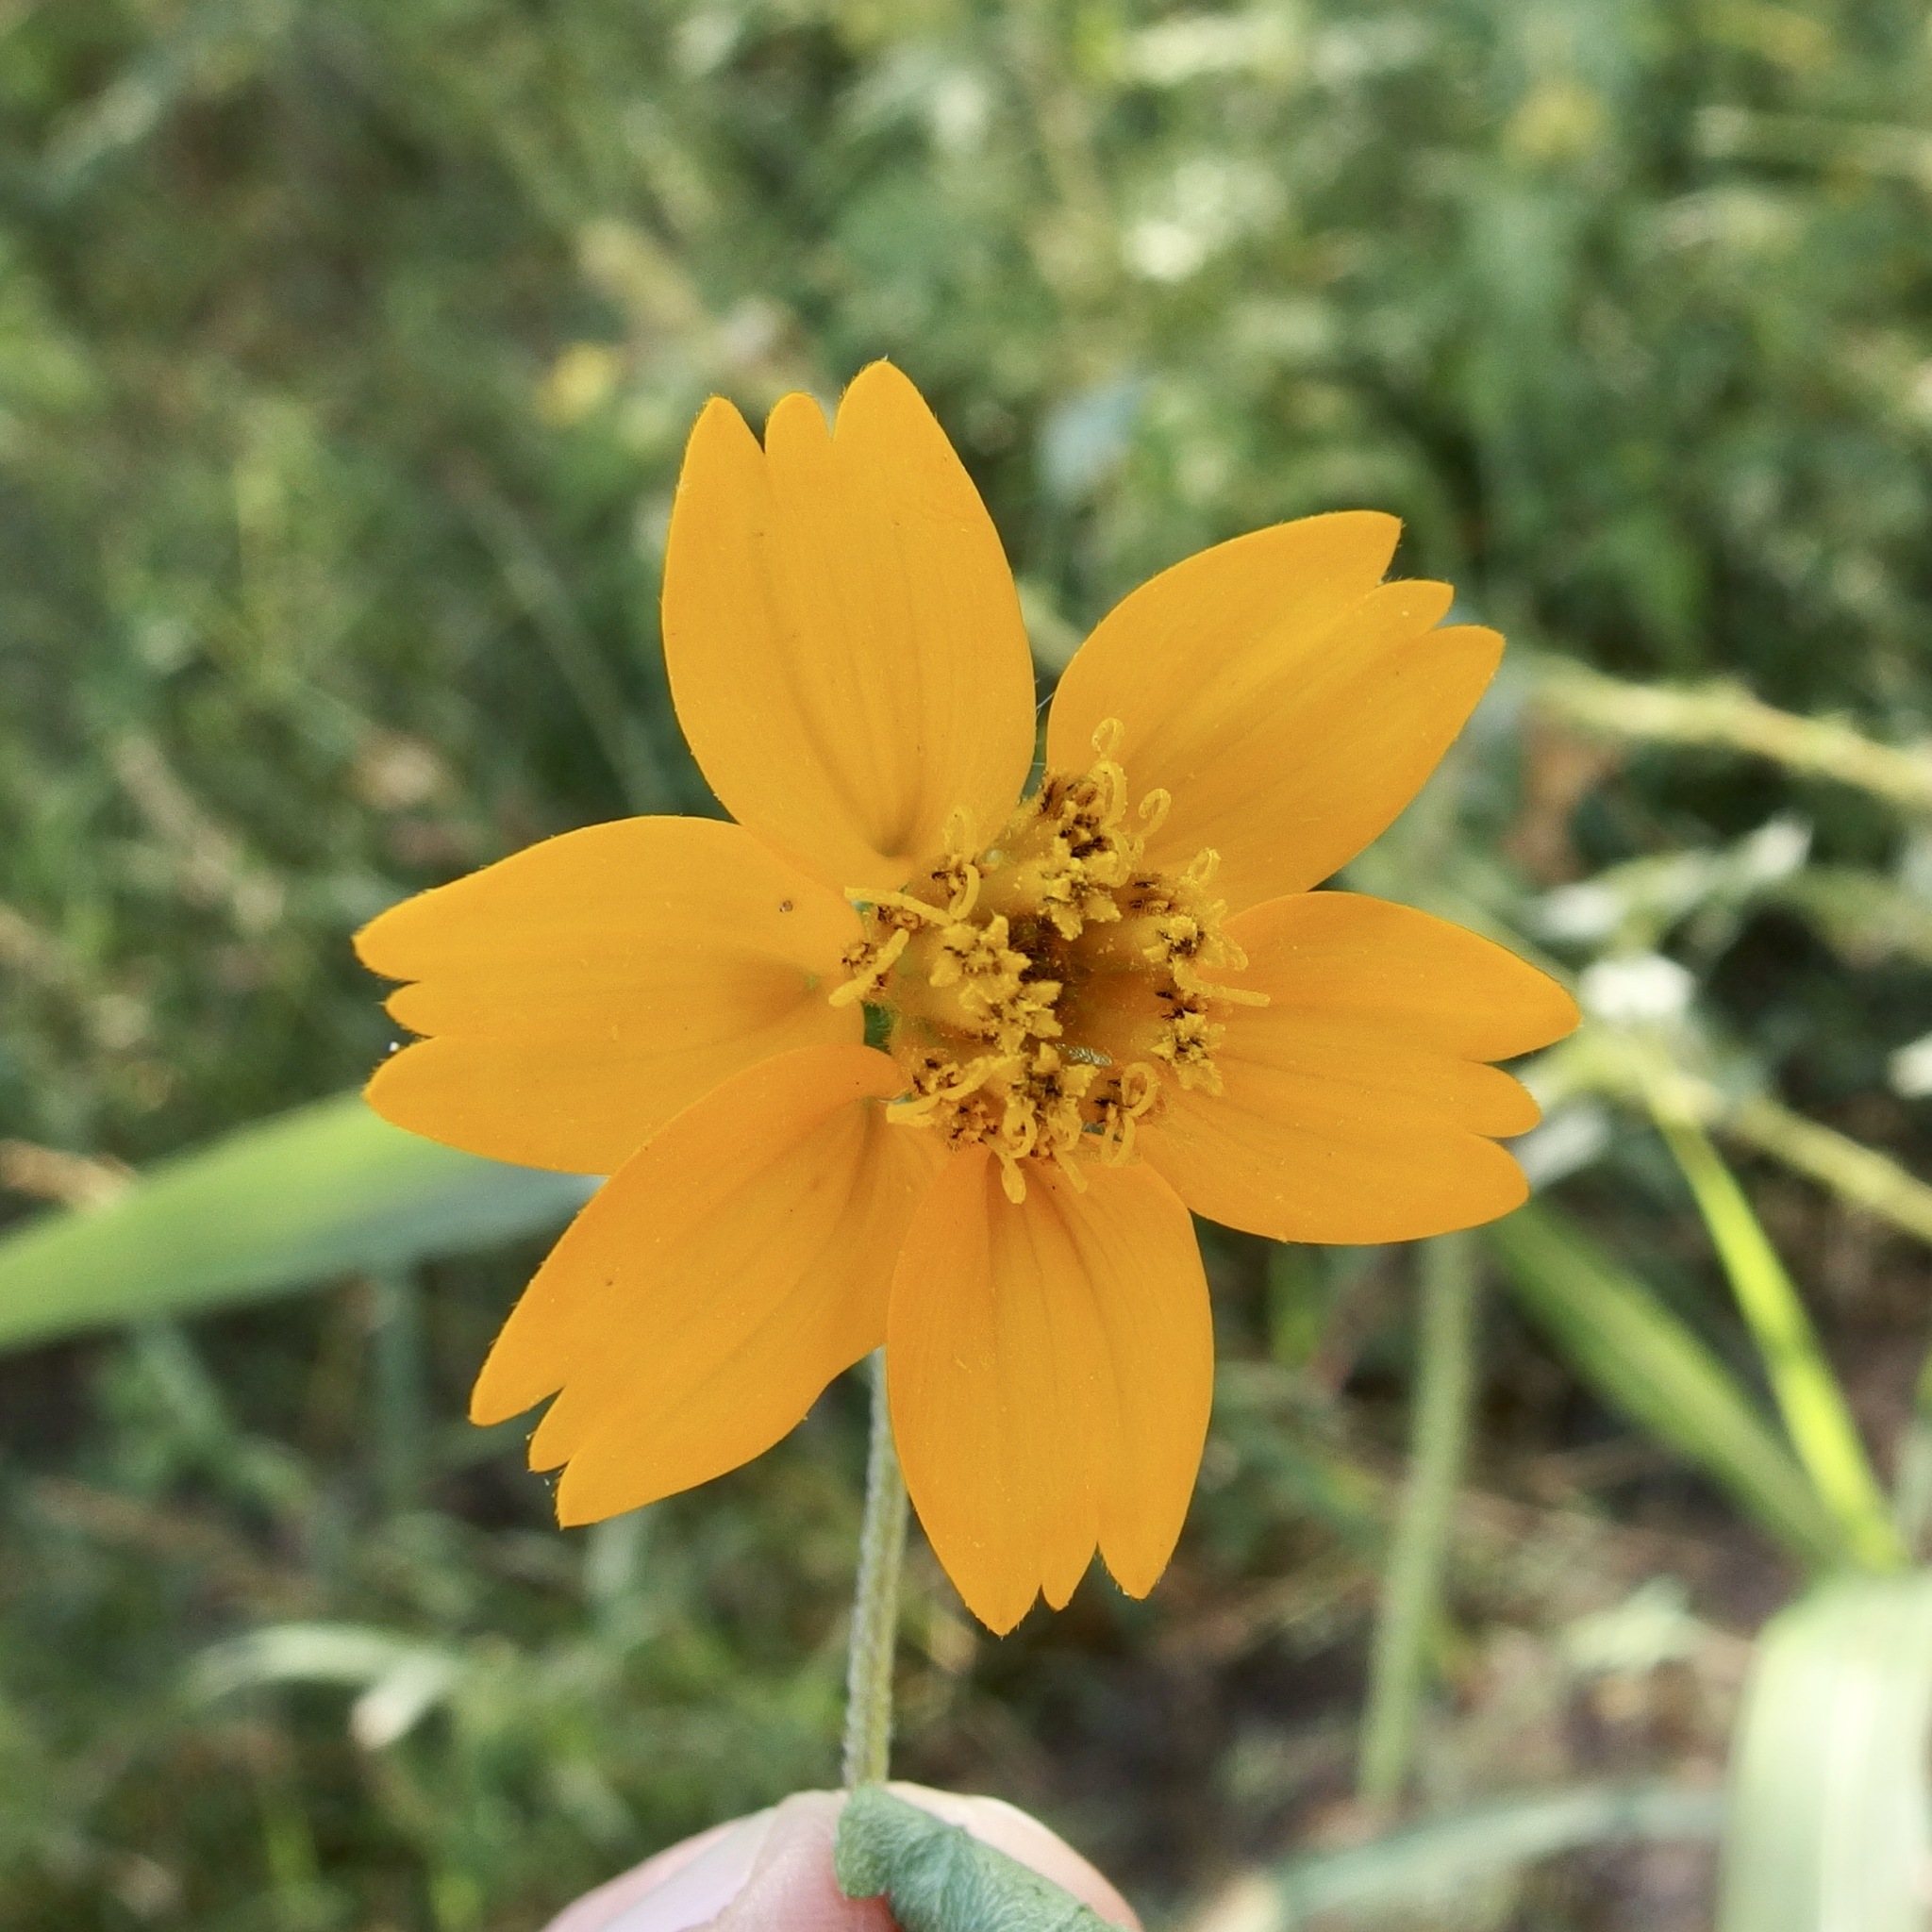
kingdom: Plantae
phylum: Tracheophyta
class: Magnoliopsida
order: Asterales
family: Asteraceae
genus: Sclerocarpus
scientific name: Sclerocarpus spathulatus
